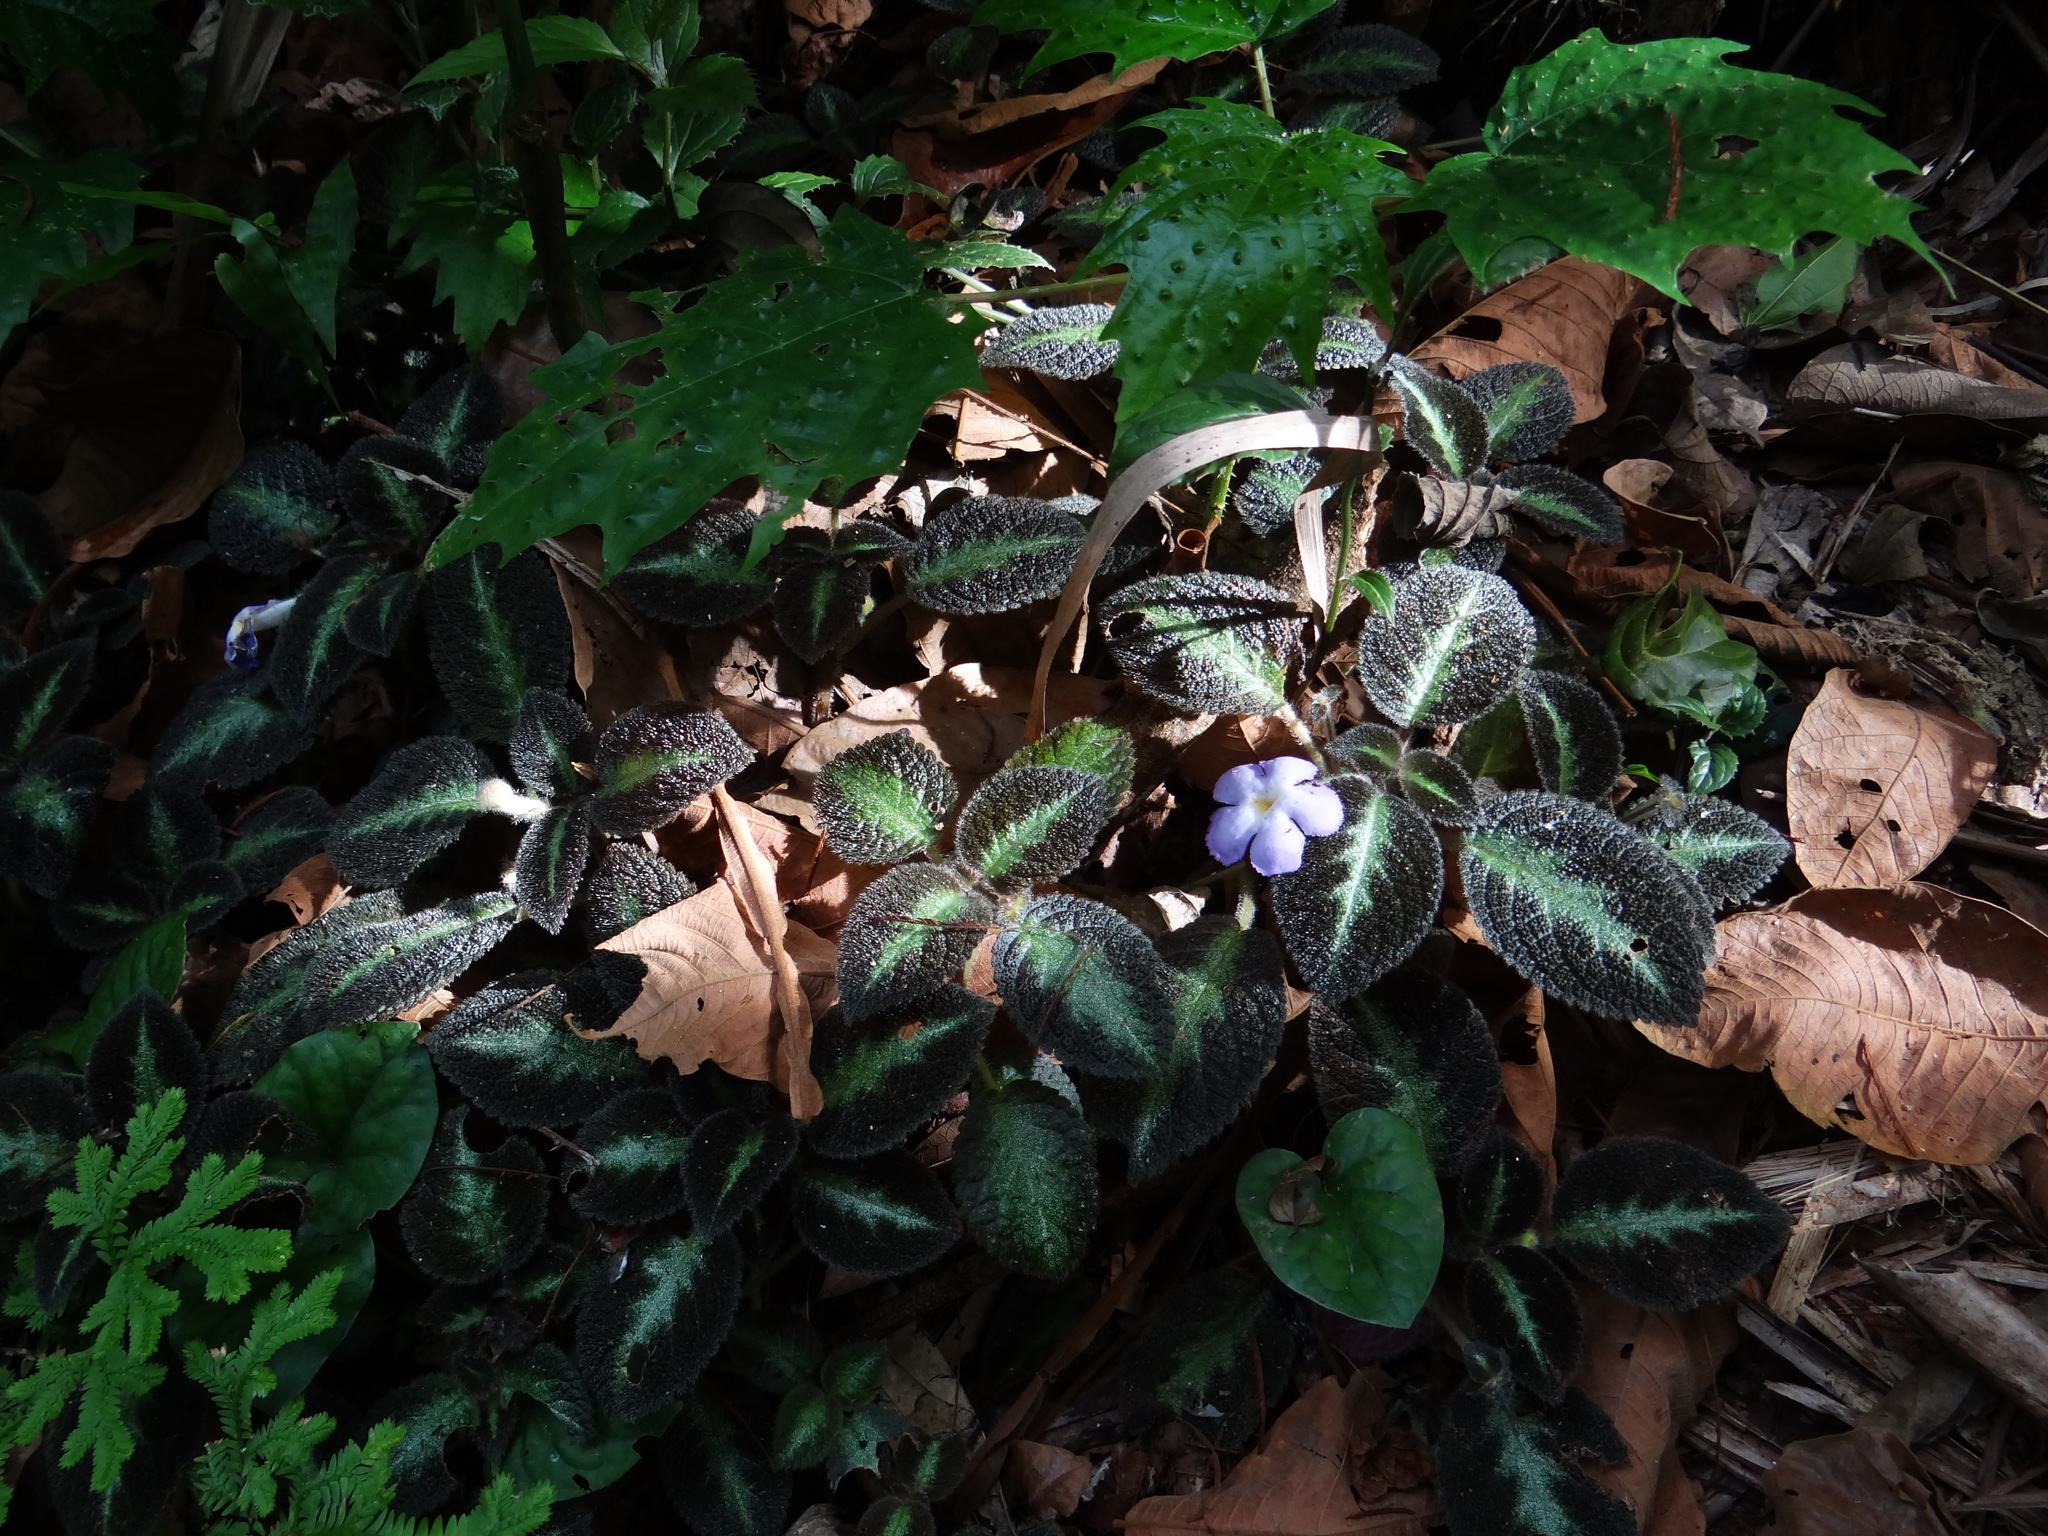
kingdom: Plantae
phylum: Tracheophyta
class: Magnoliopsida
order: Lamiales
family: Gesneriaceae
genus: Episcia
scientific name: Episcia lilacina
